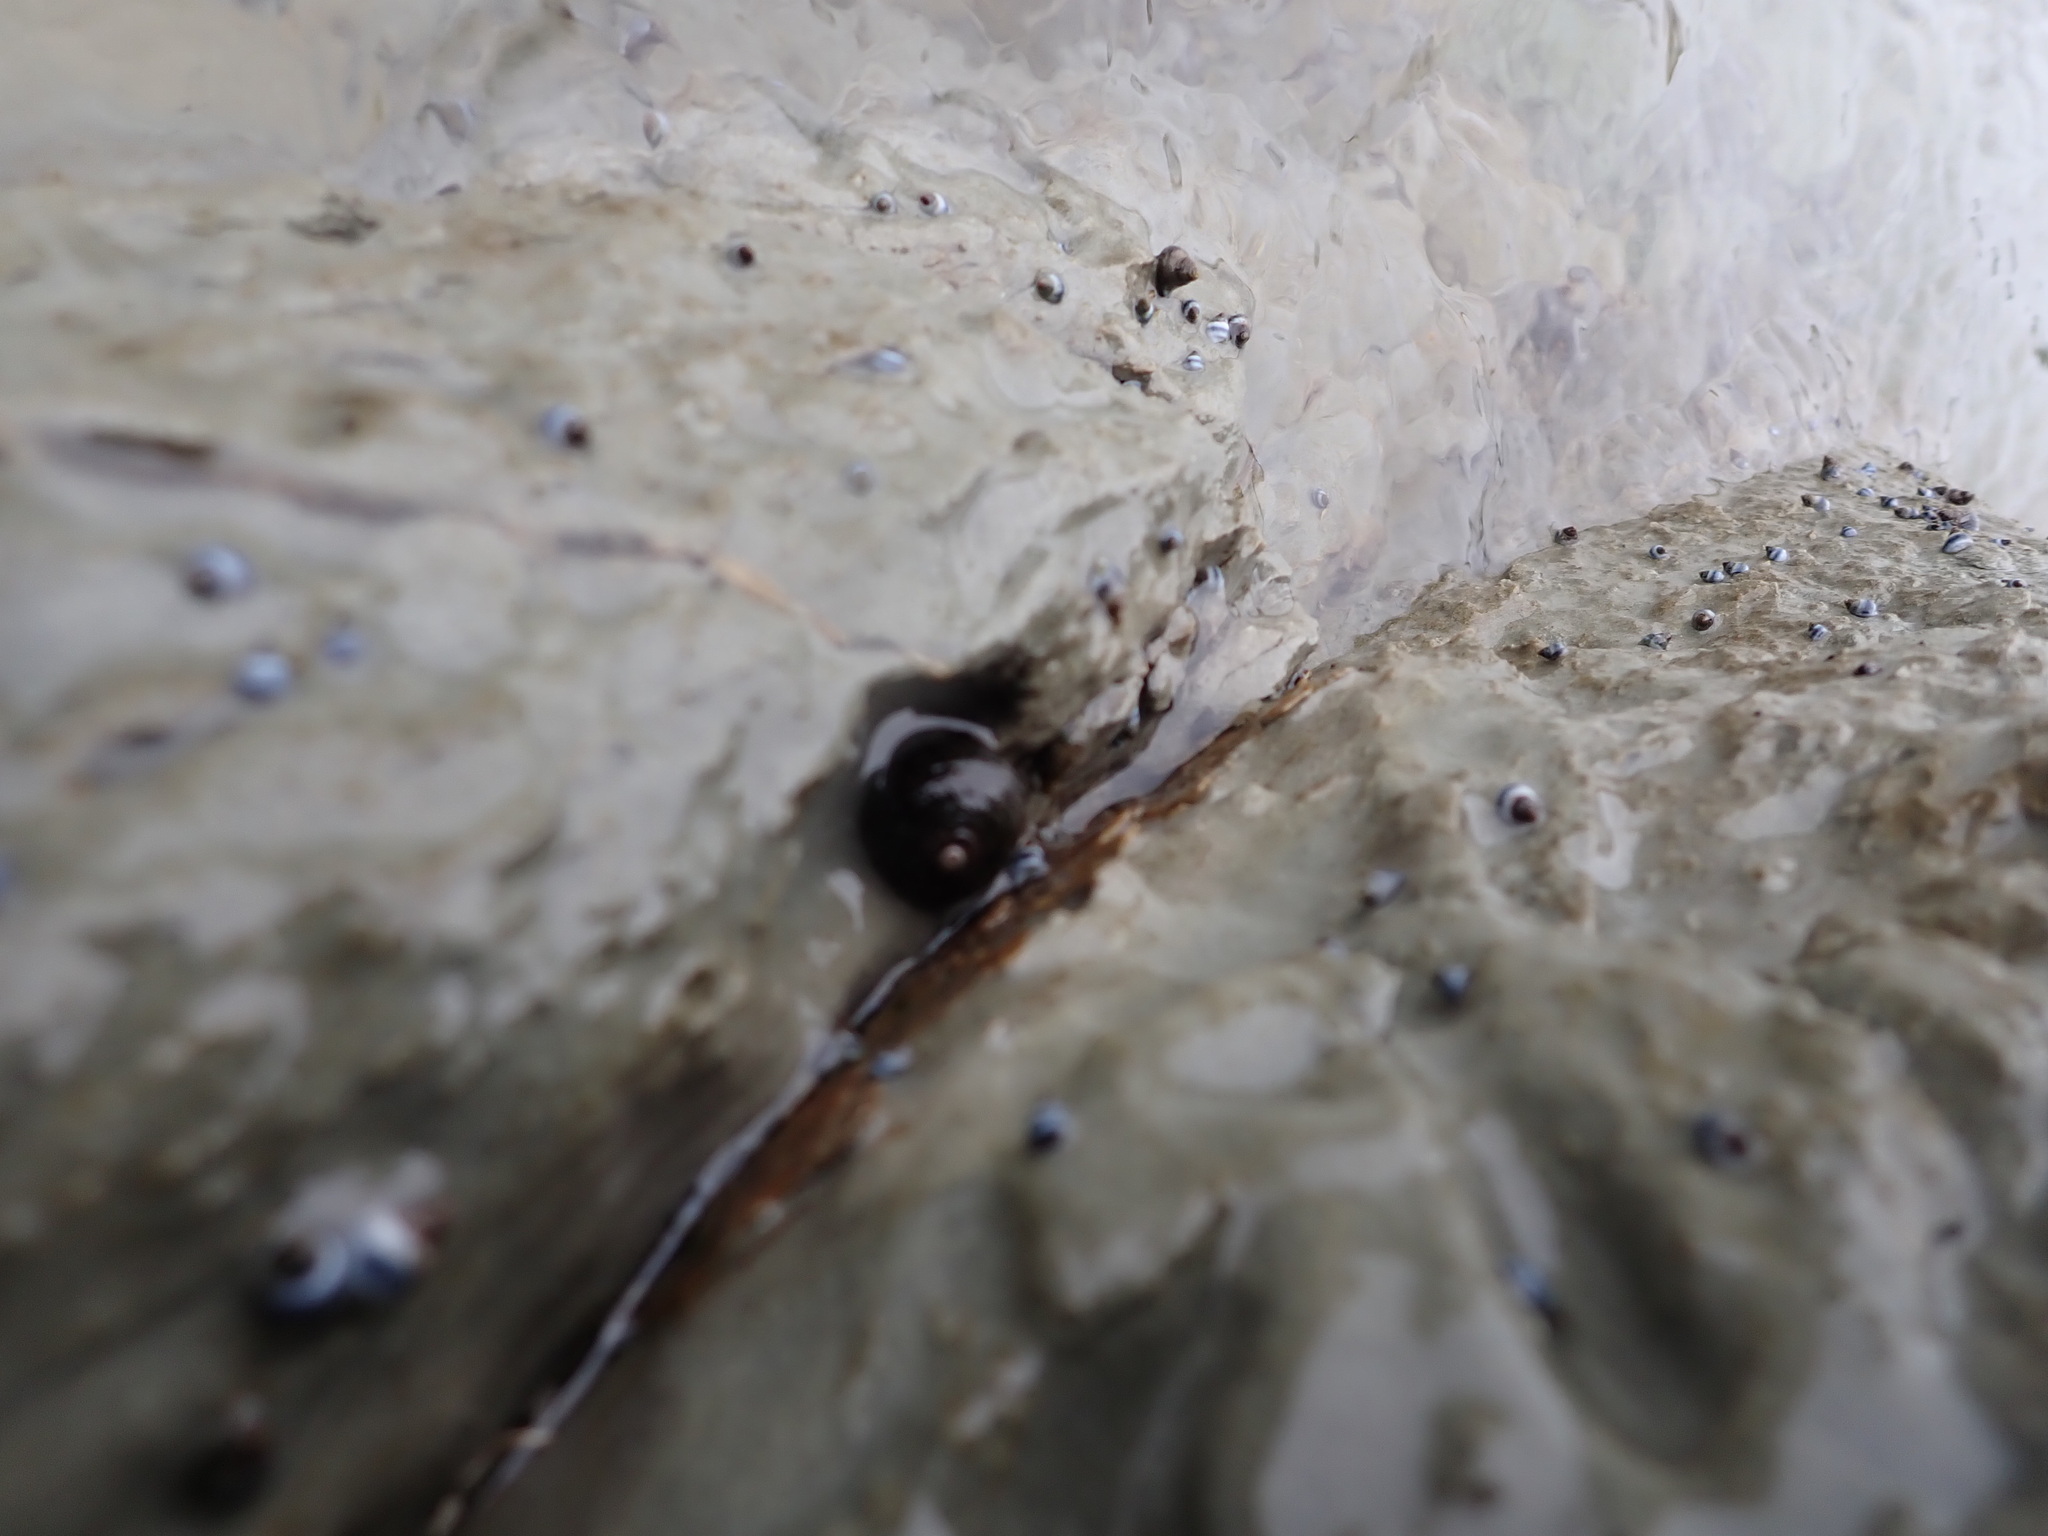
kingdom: Animalia
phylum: Mollusca
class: Gastropoda
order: Trochida
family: Trochidae
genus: Diloma
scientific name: Diloma aethiops
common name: Scorched monodont
